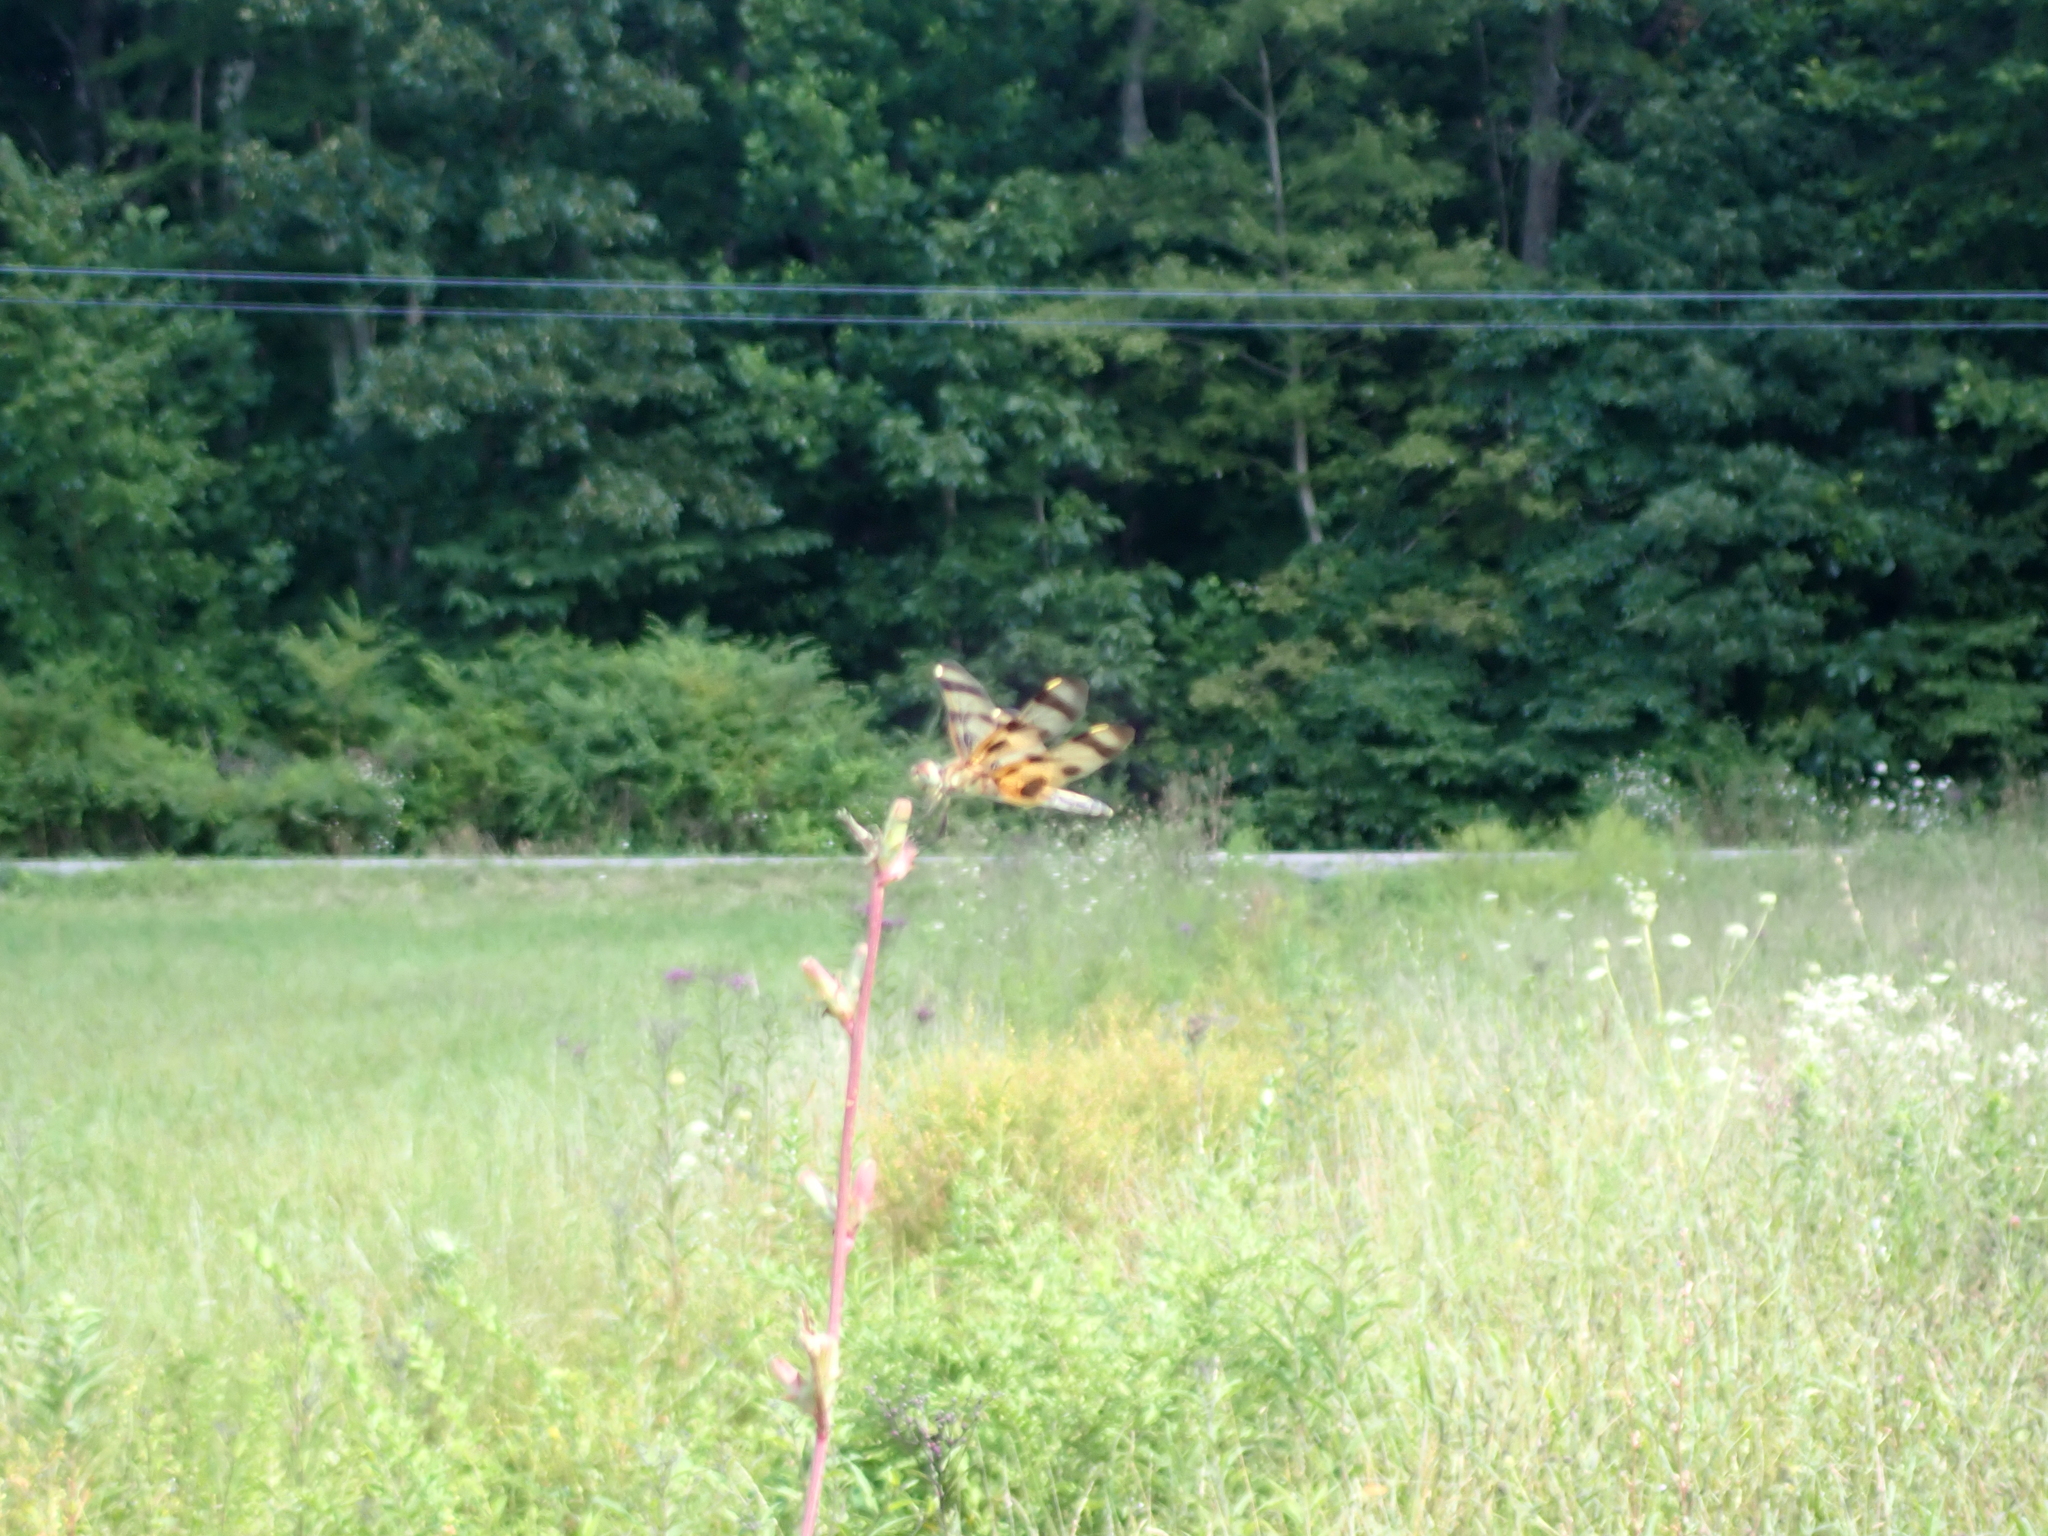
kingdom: Animalia
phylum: Arthropoda
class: Insecta
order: Odonata
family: Libellulidae
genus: Celithemis
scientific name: Celithemis eponina
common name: Halloween pennant
